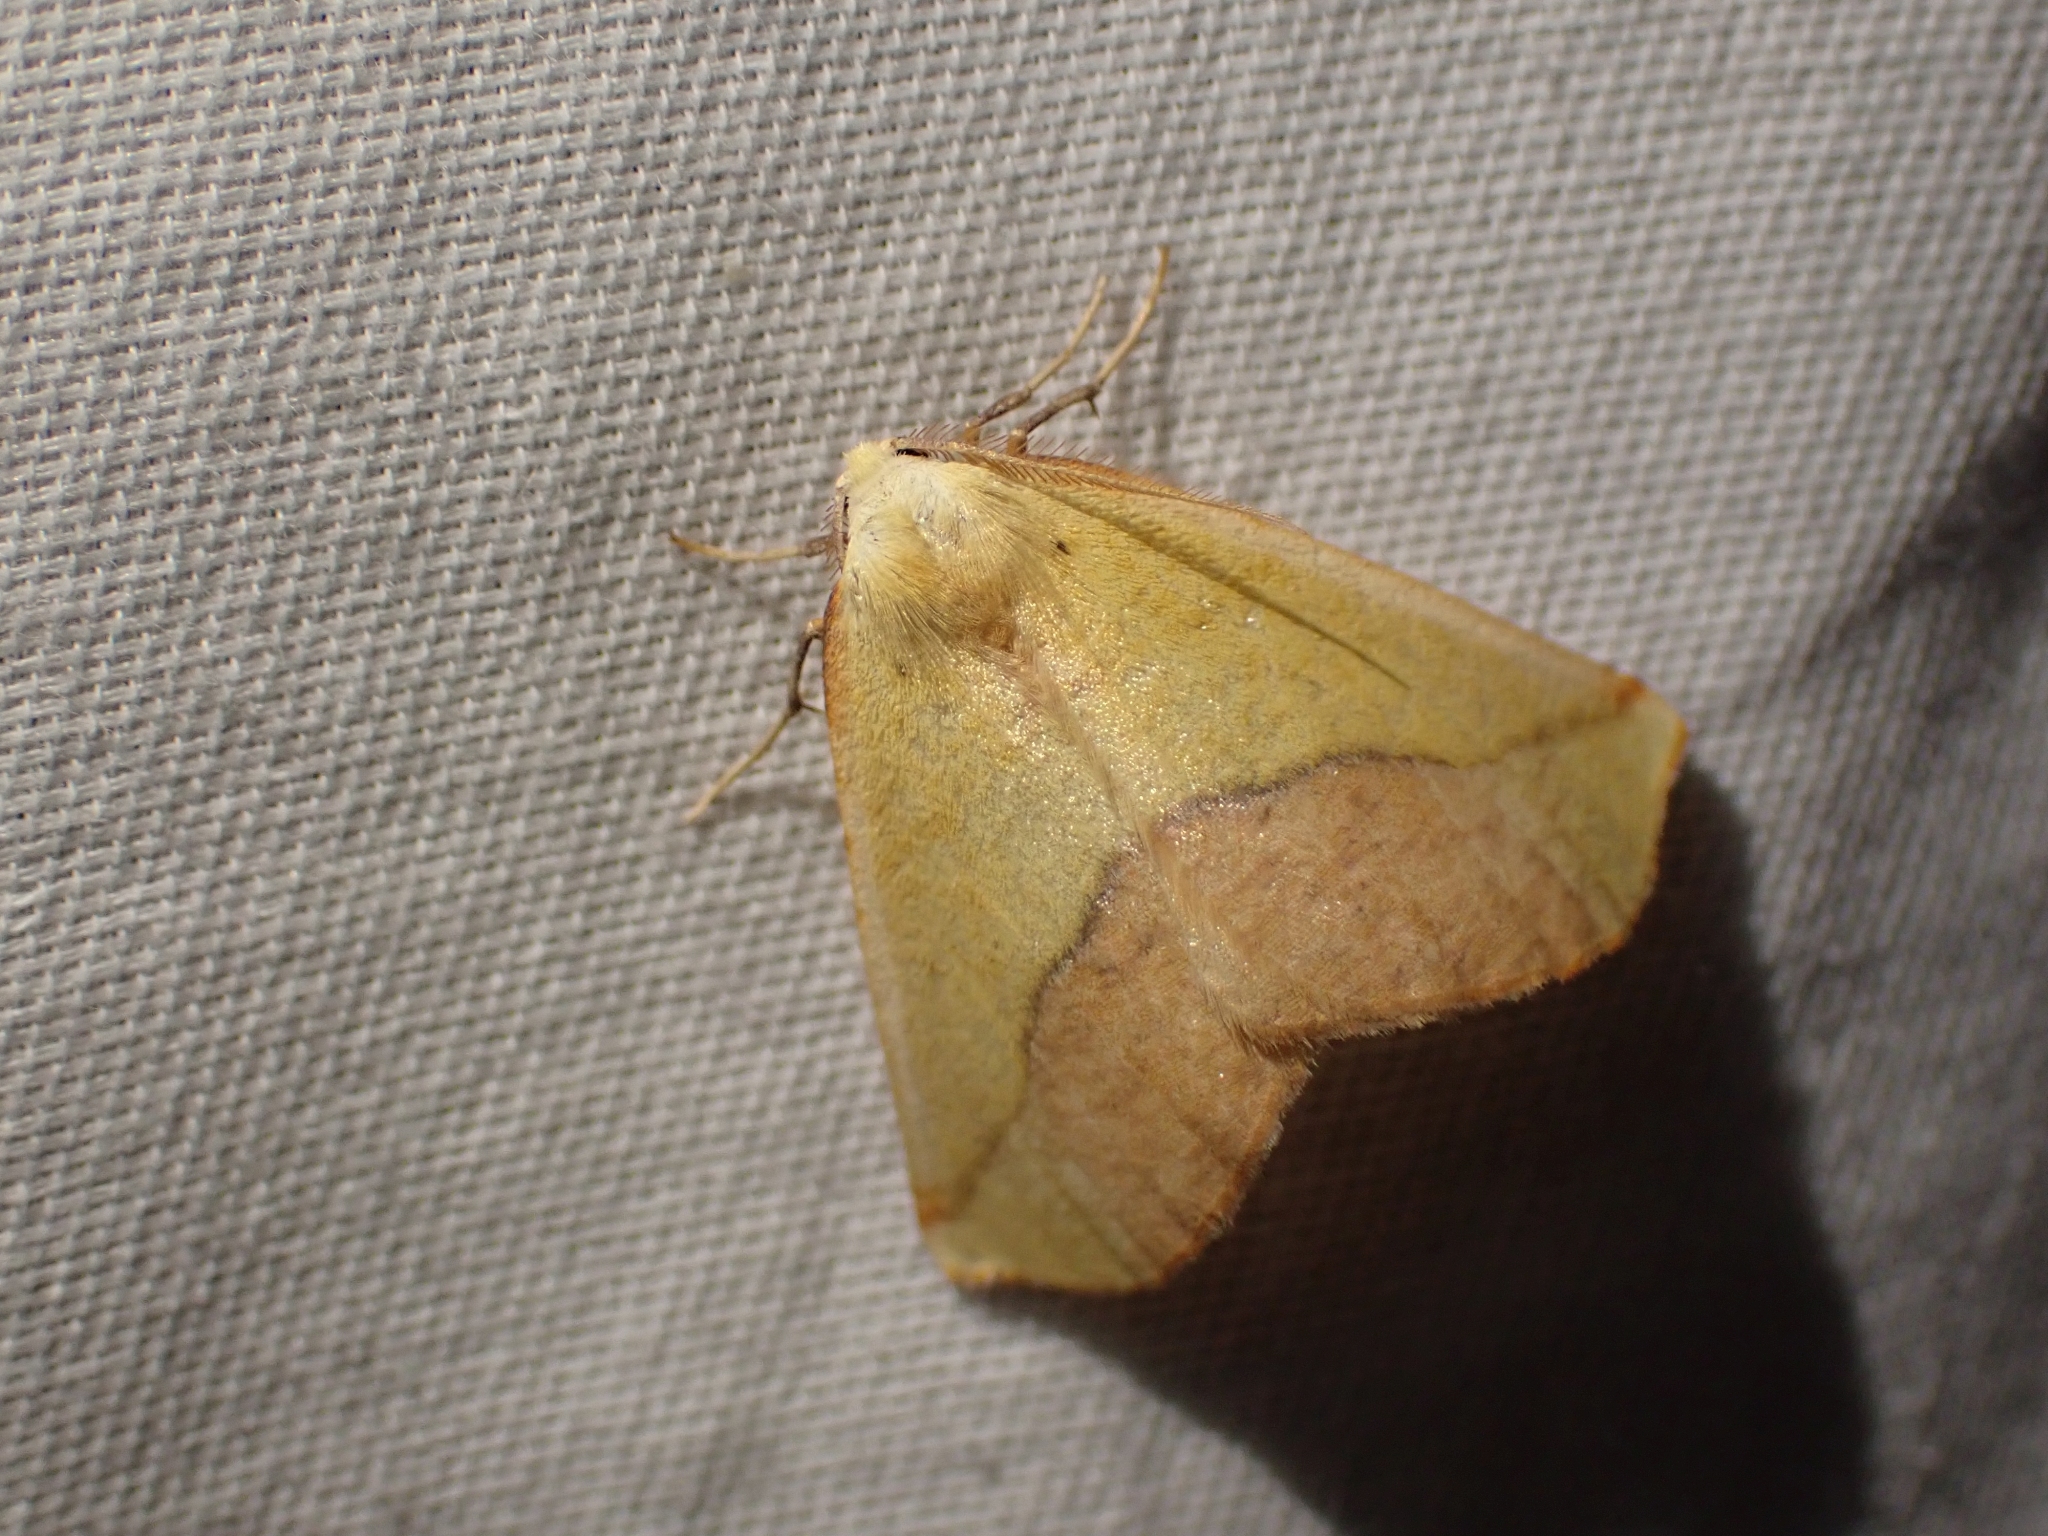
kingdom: Animalia
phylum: Arthropoda
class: Insecta
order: Lepidoptera
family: Geometridae
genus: Sicya
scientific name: Sicya macularia
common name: Sharp-lined yellow
